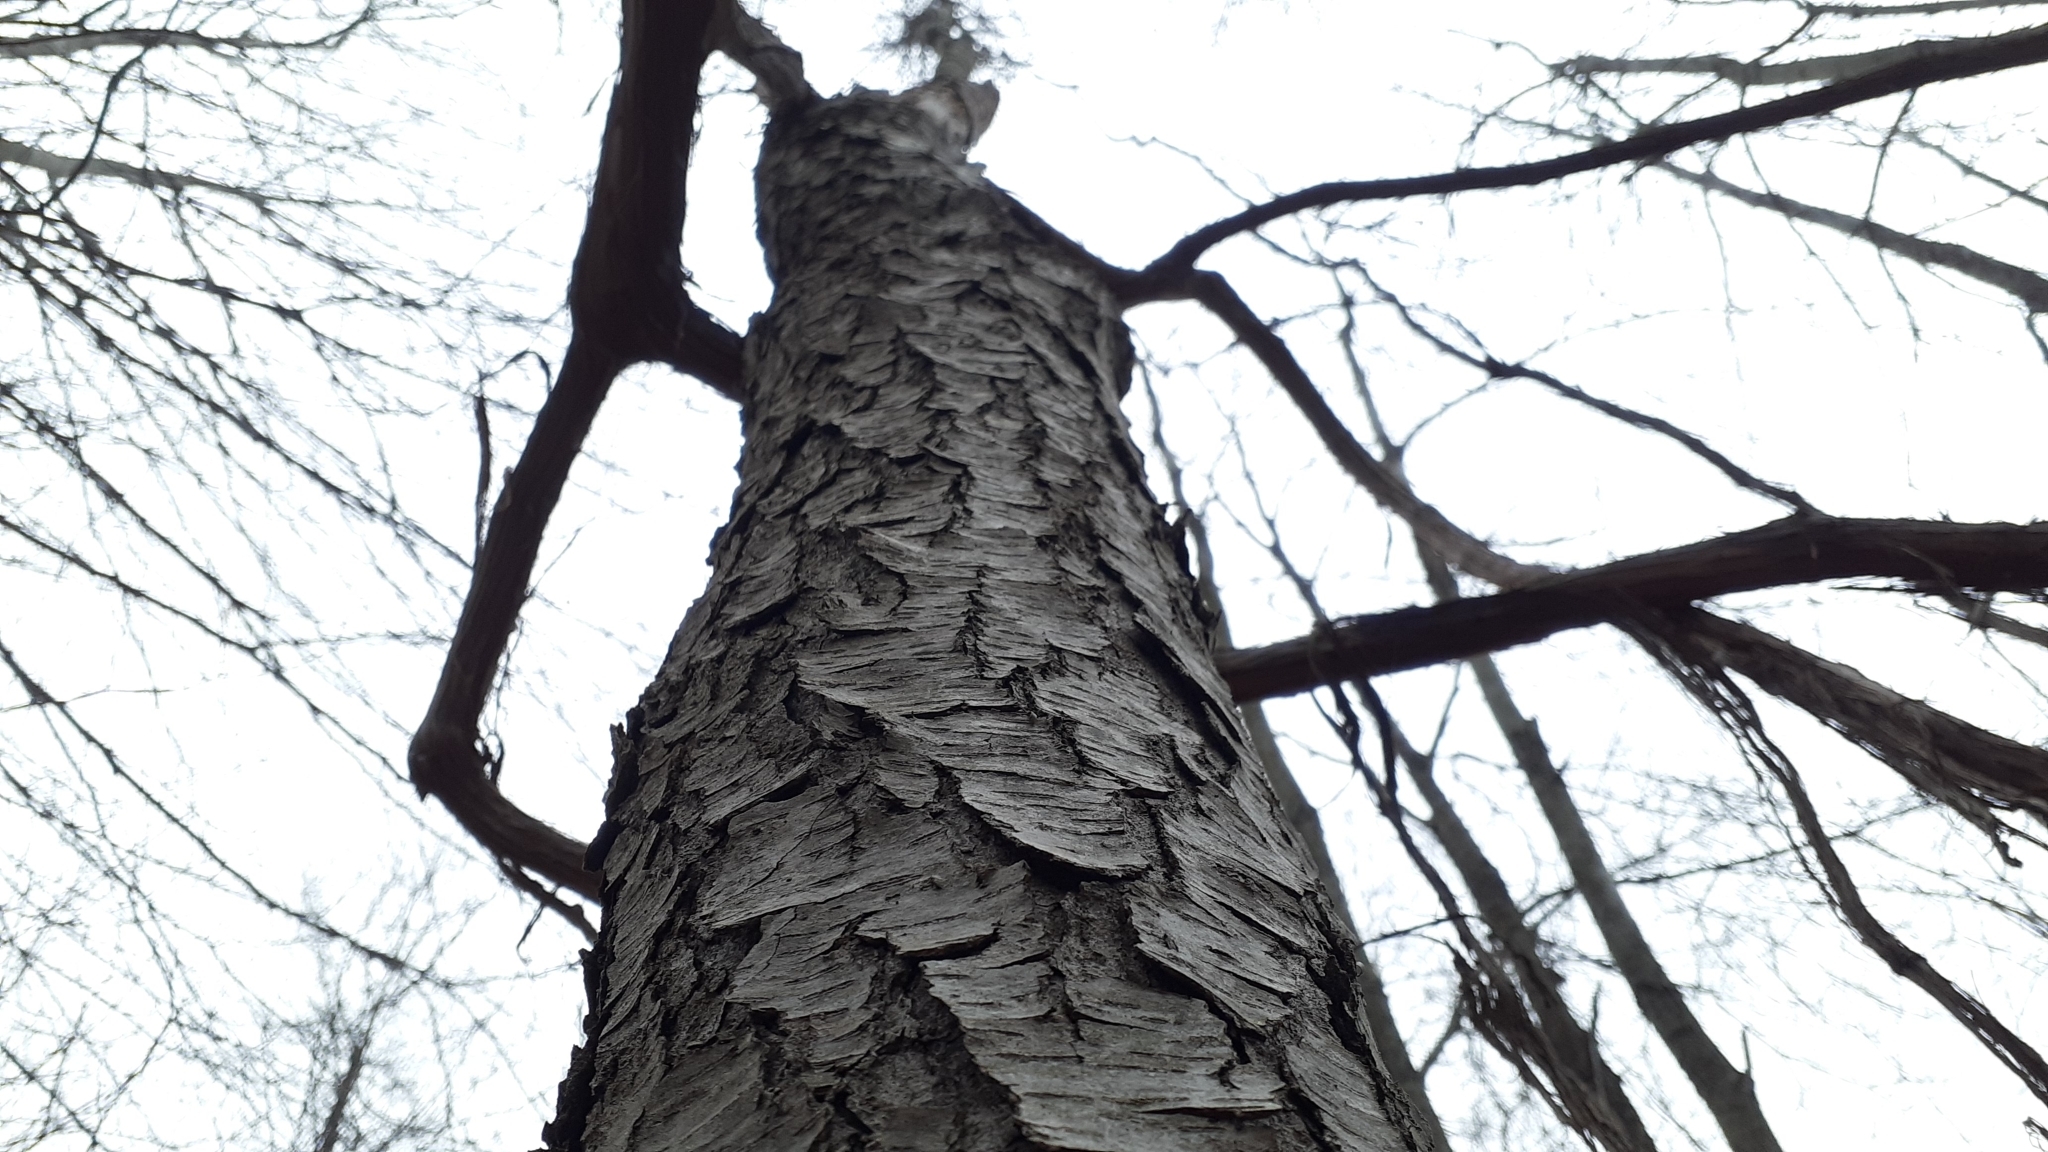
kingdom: Plantae
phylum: Tracheophyta
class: Magnoliopsida
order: Rosales
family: Rosaceae
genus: Prunus
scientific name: Prunus serotina
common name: Black cherry
